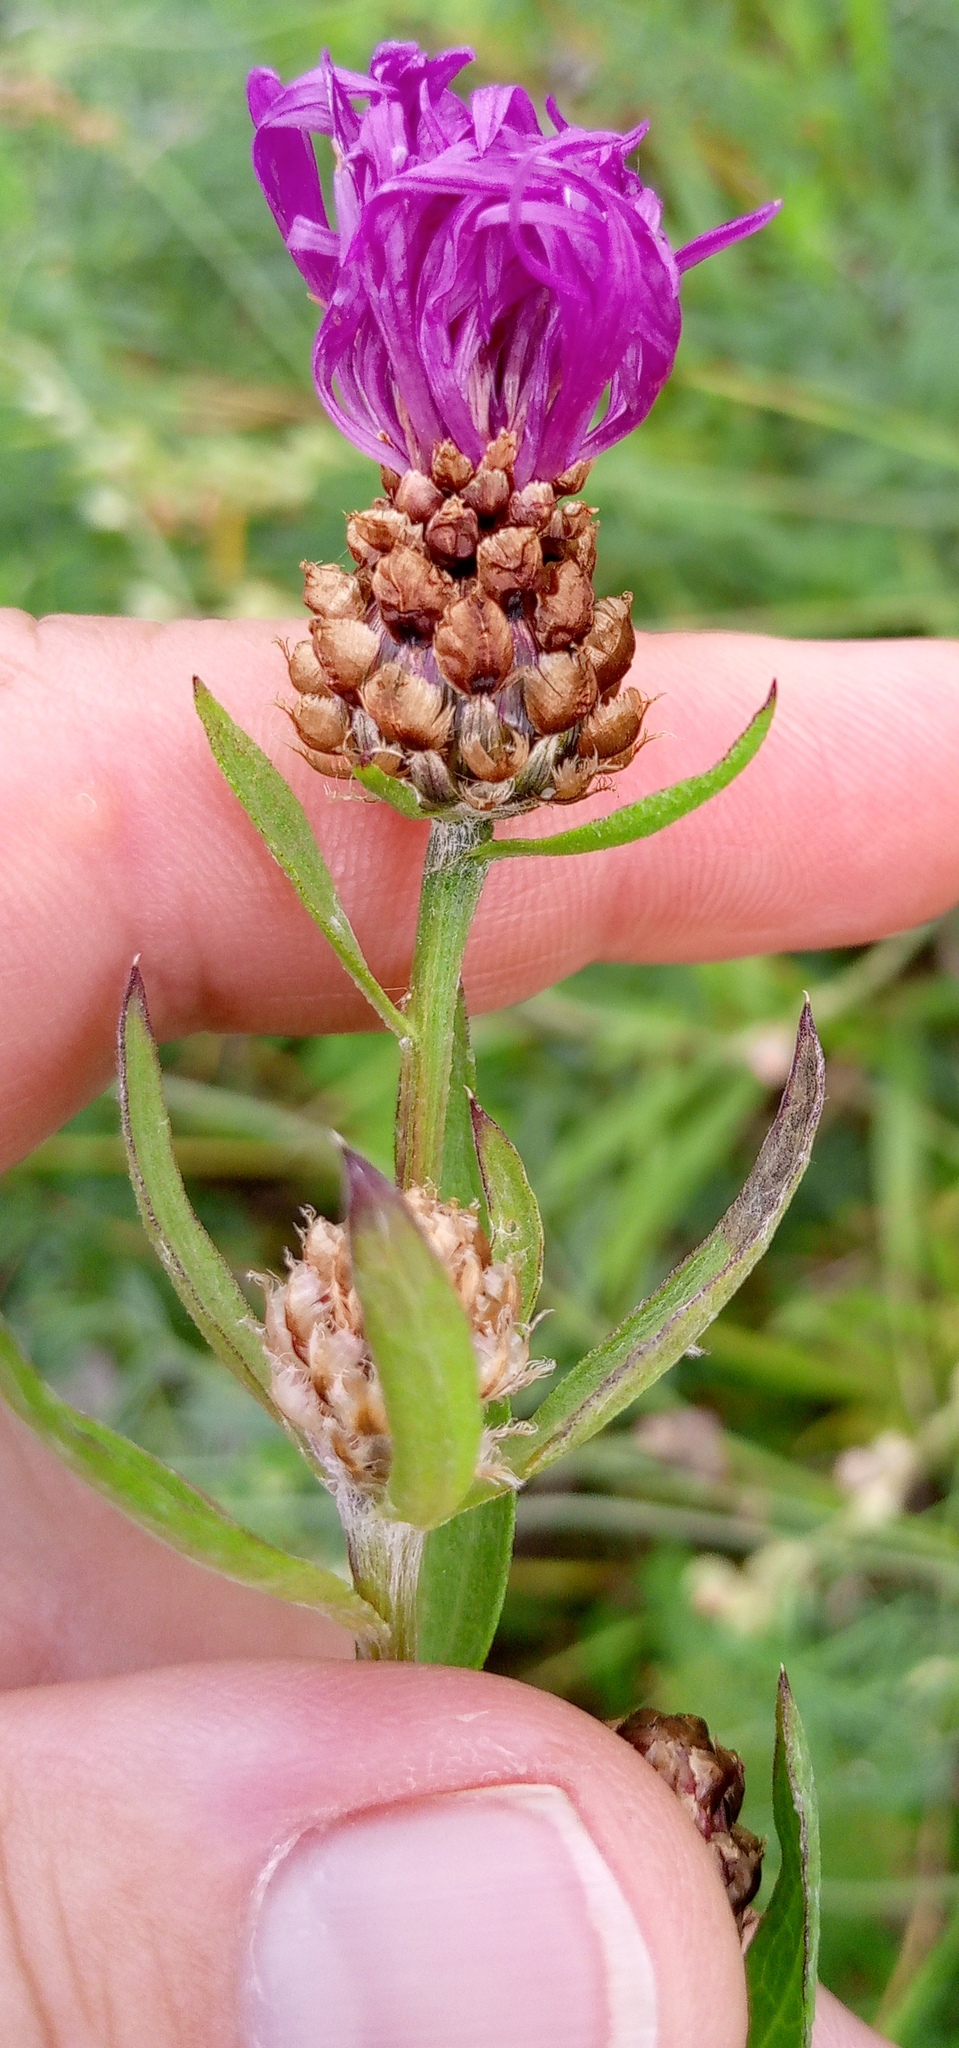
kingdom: Plantae
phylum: Tracheophyta
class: Magnoliopsida
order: Asterales
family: Asteraceae
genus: Centaurea
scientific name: Centaurea jacea
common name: Brown knapweed
